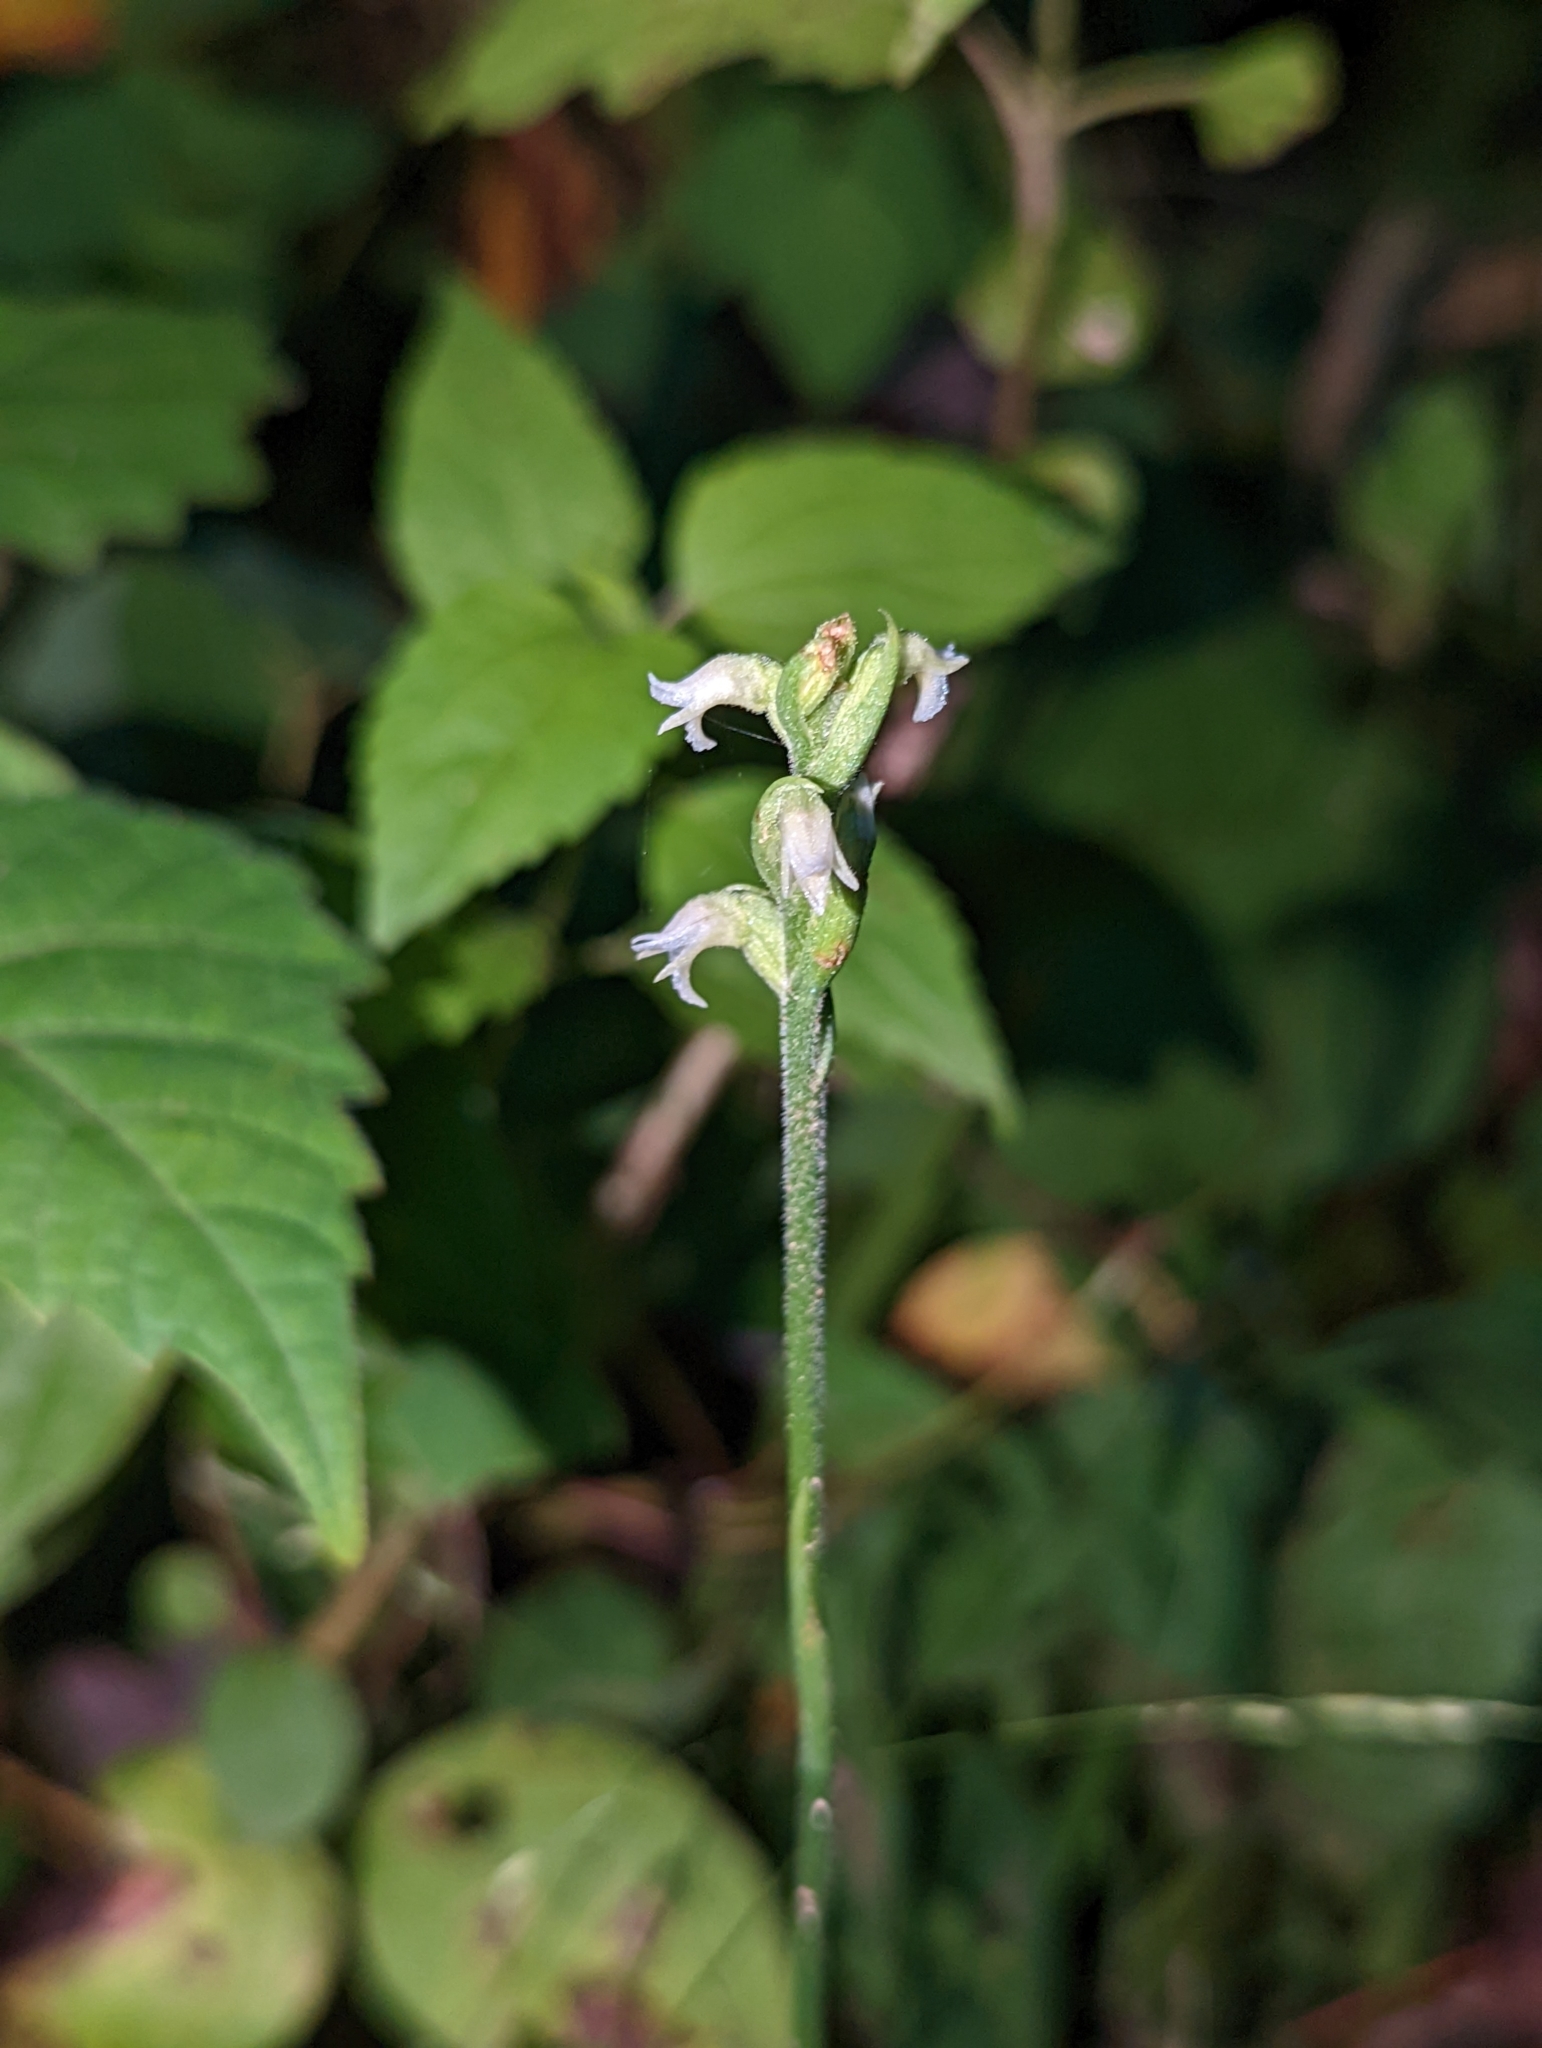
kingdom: Plantae
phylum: Tracheophyta
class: Liliopsida
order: Asparagales
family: Orchidaceae
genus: Spiranthes
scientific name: Spiranthes ovalis
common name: October ladies'-tresses
